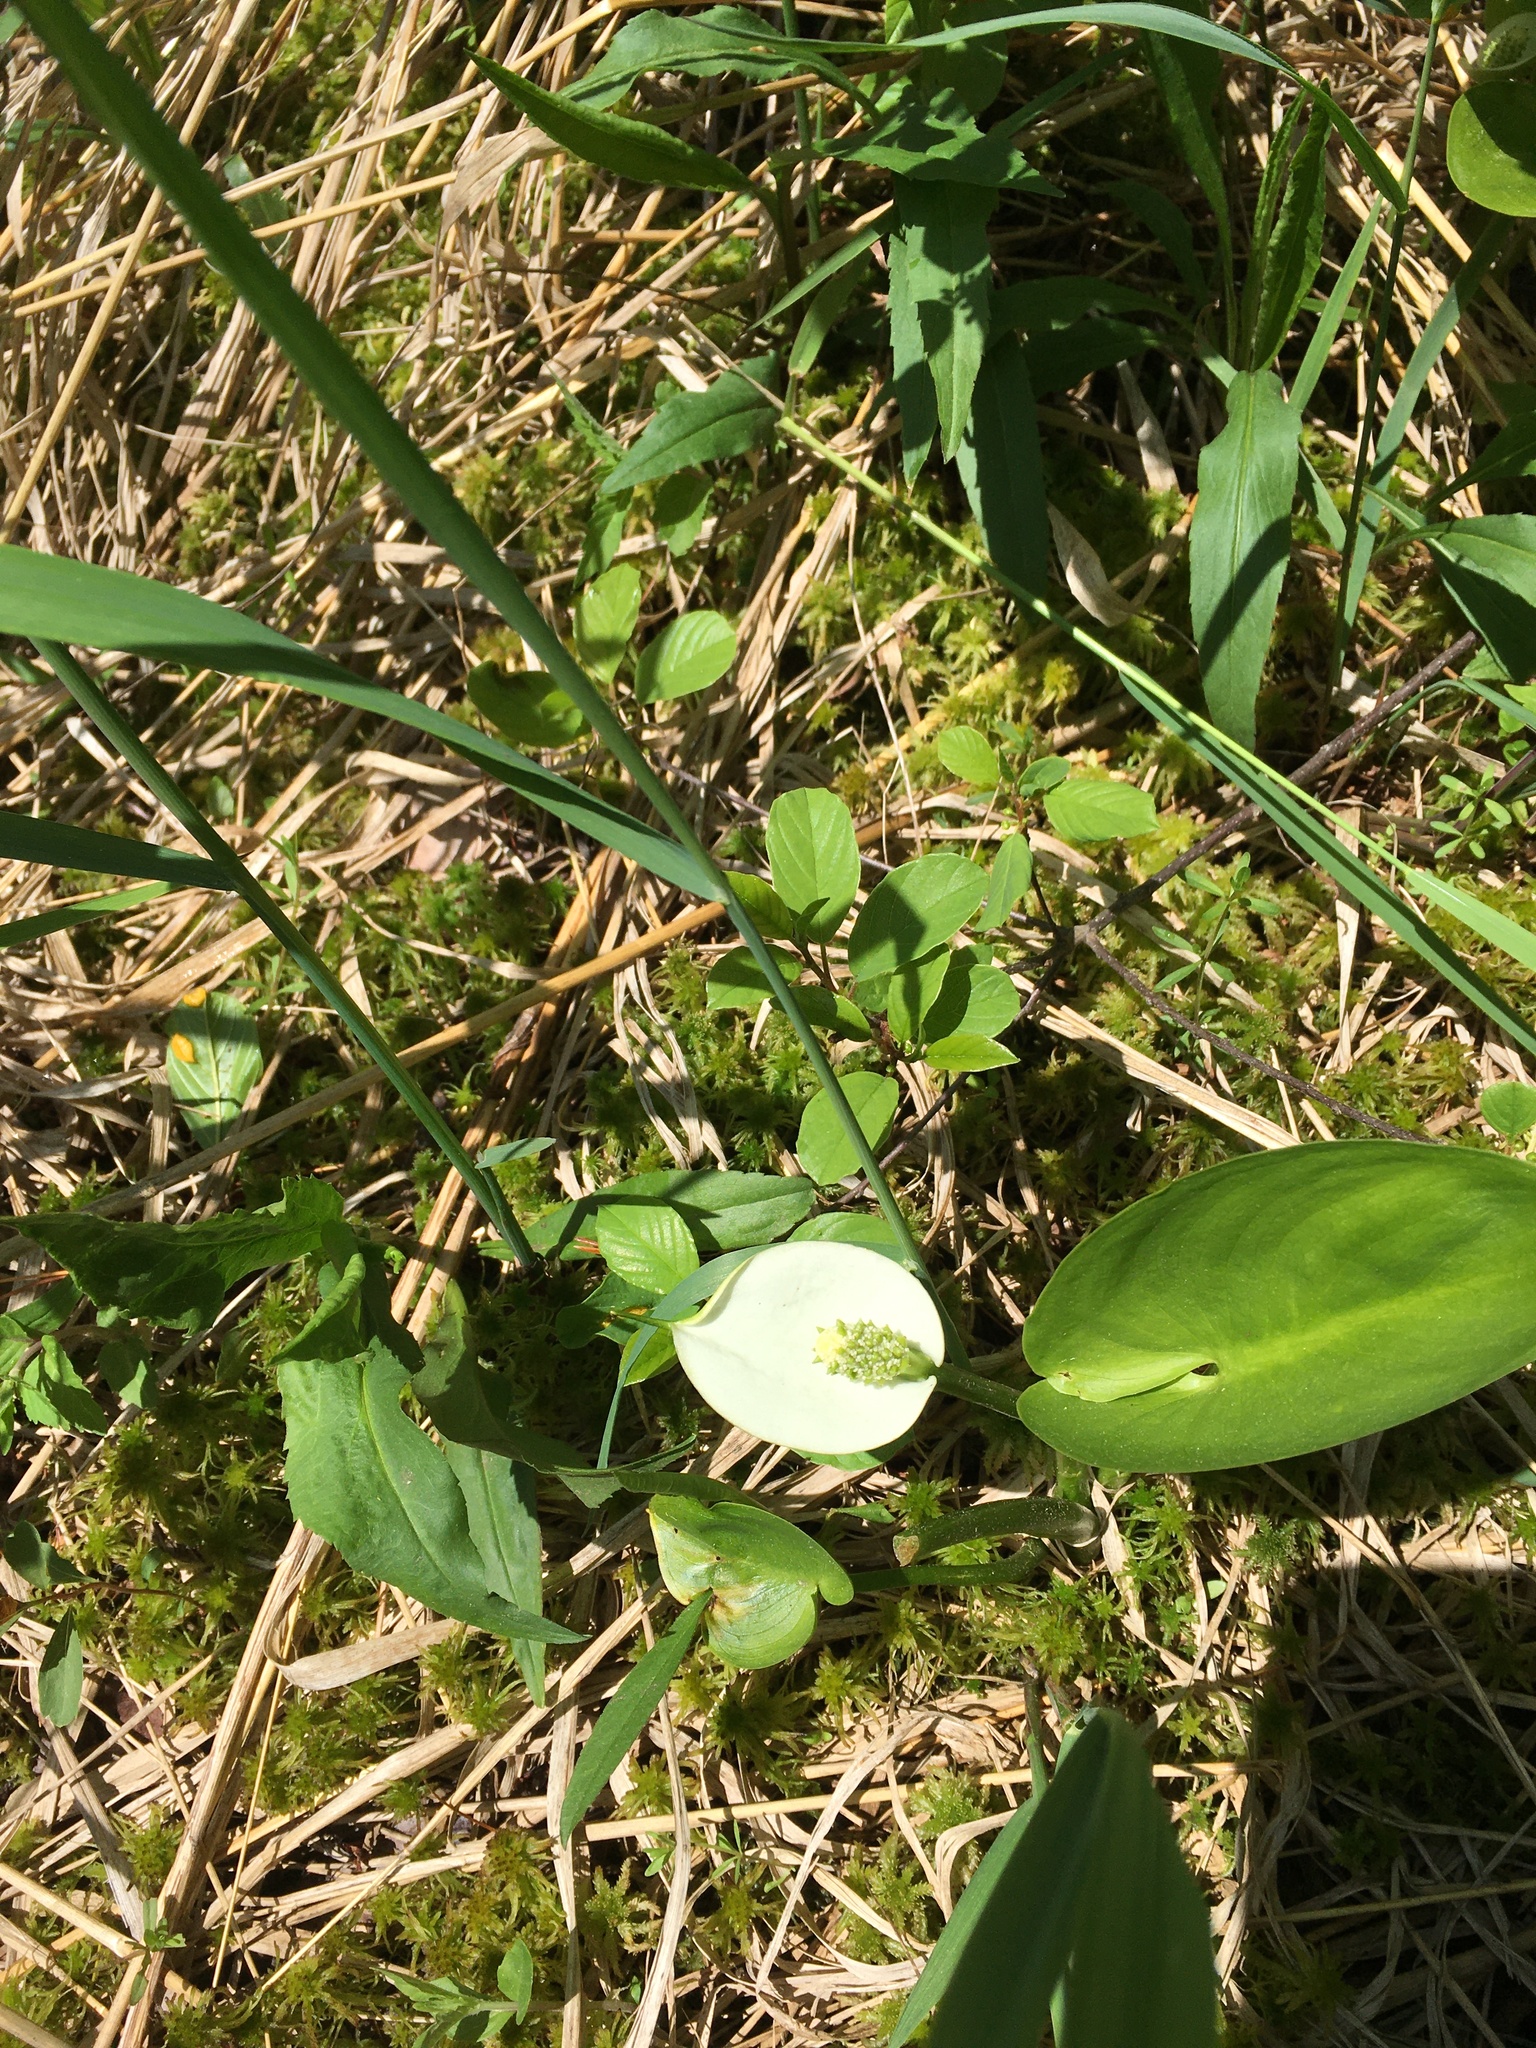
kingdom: Plantae
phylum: Tracheophyta
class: Liliopsida
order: Alismatales
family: Araceae
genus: Calla
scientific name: Calla palustris
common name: Bog arum
